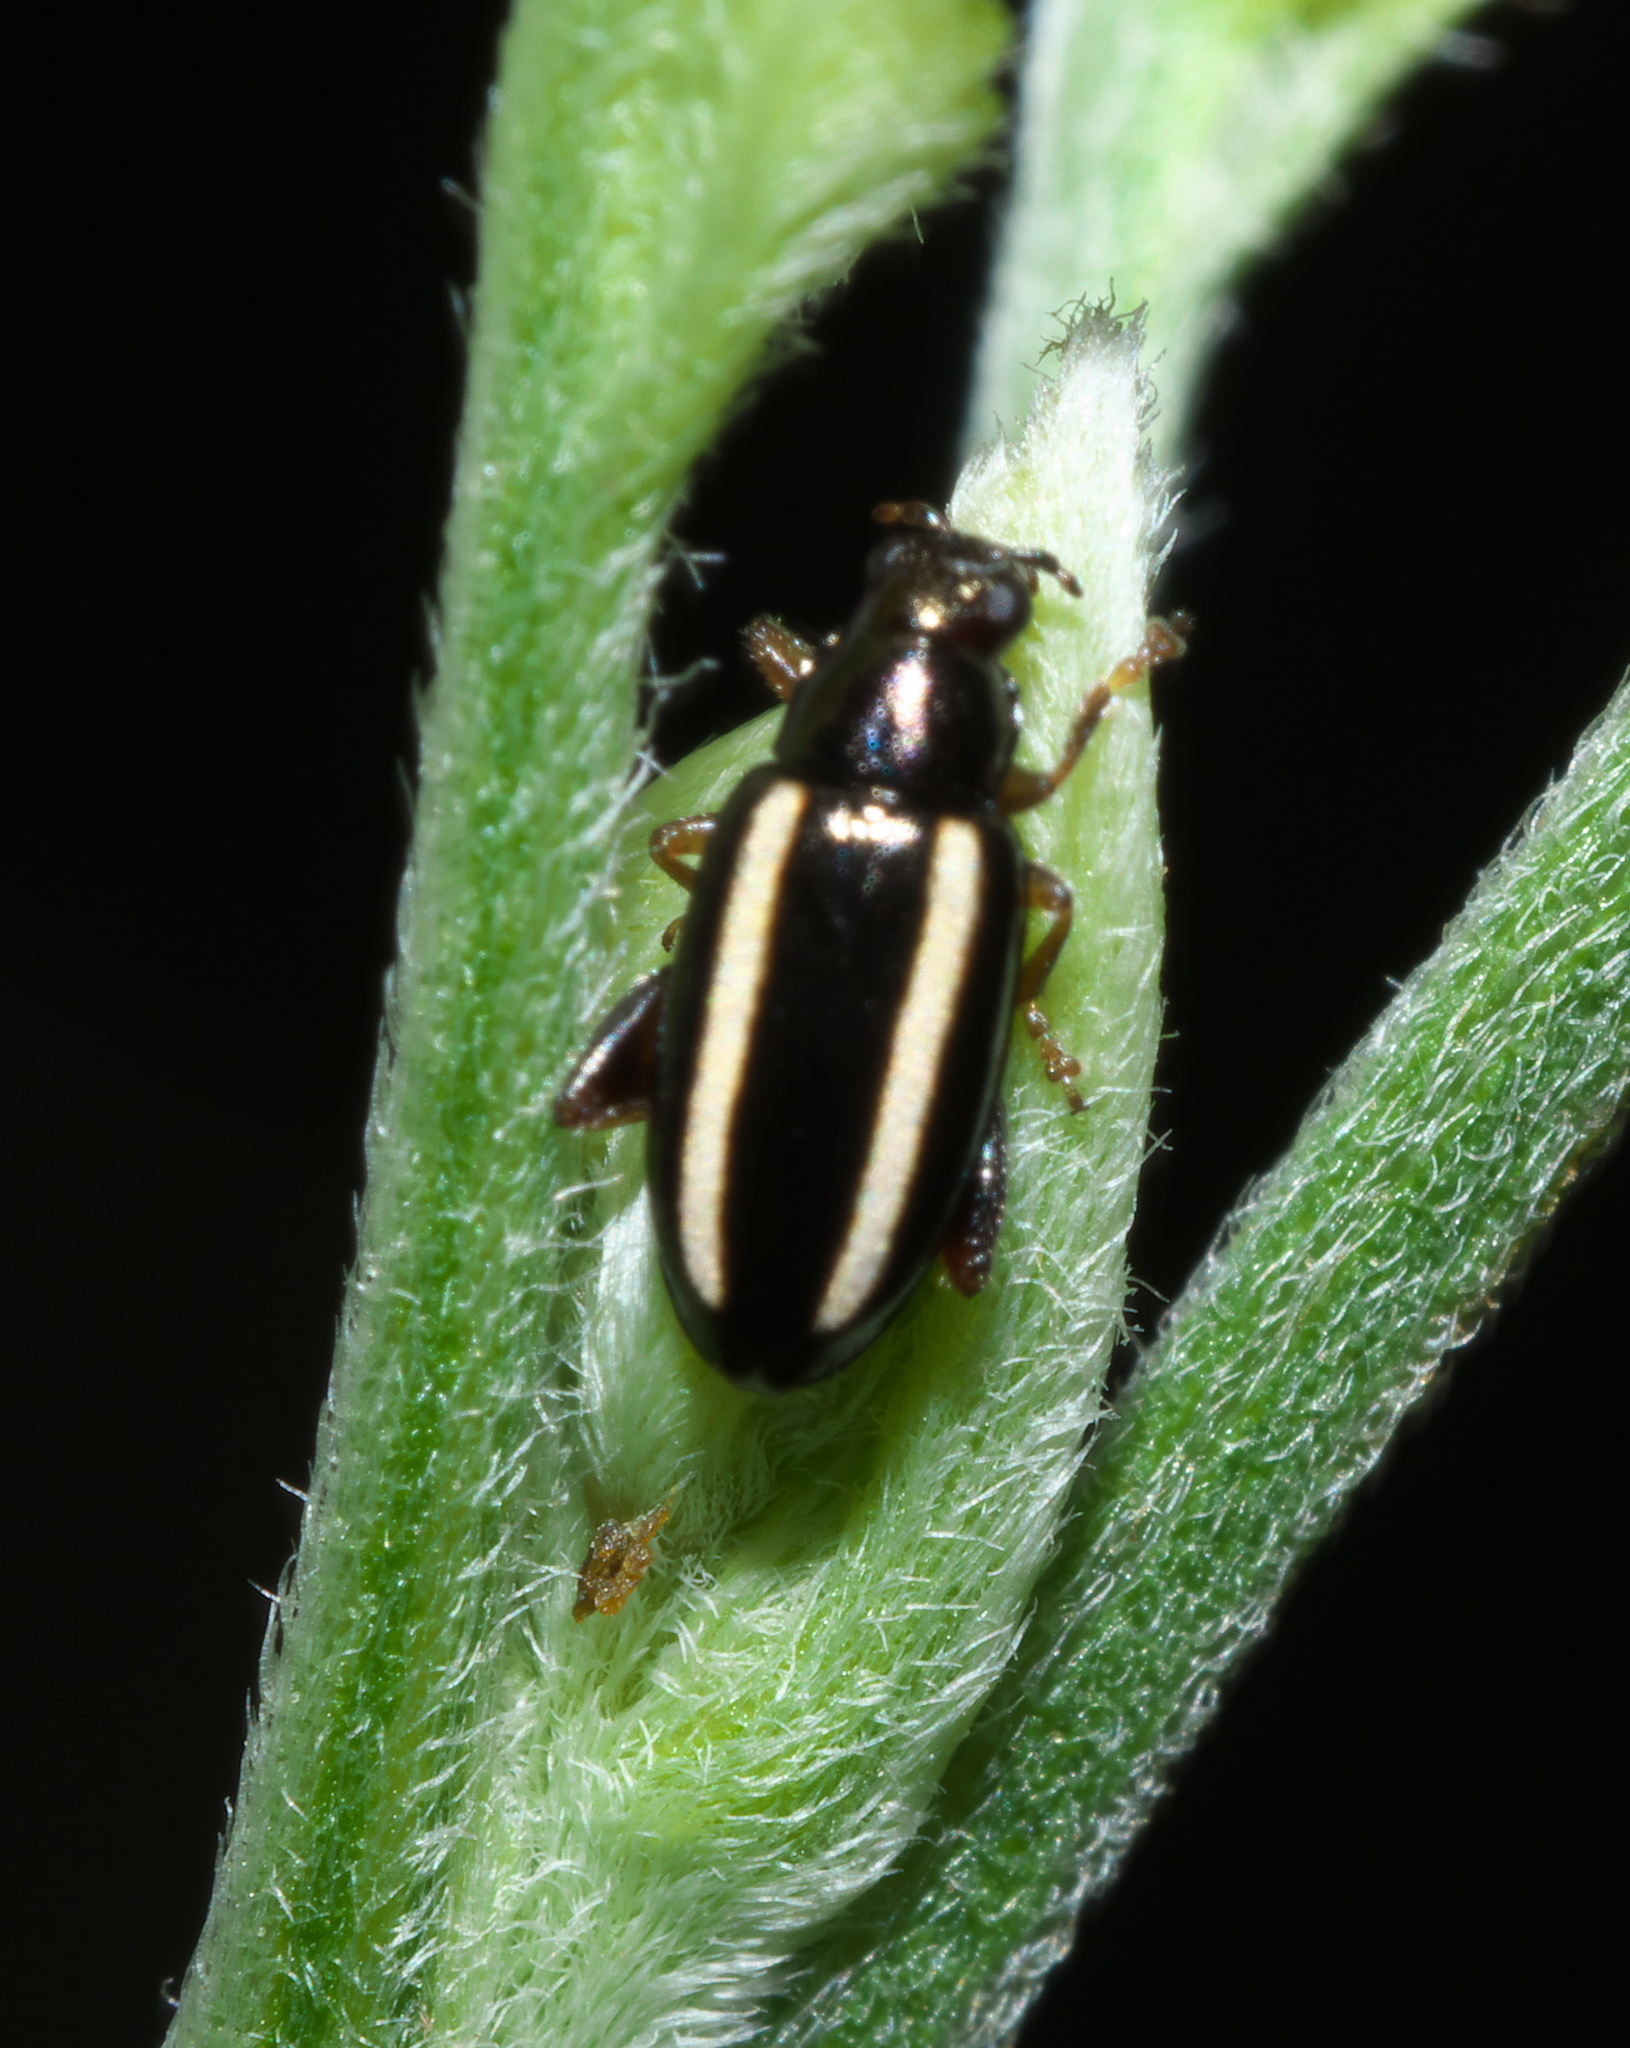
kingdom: Animalia
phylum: Arthropoda
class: Insecta
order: Coleoptera
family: Chrysomelidae
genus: Systena
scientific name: Systena elongata
